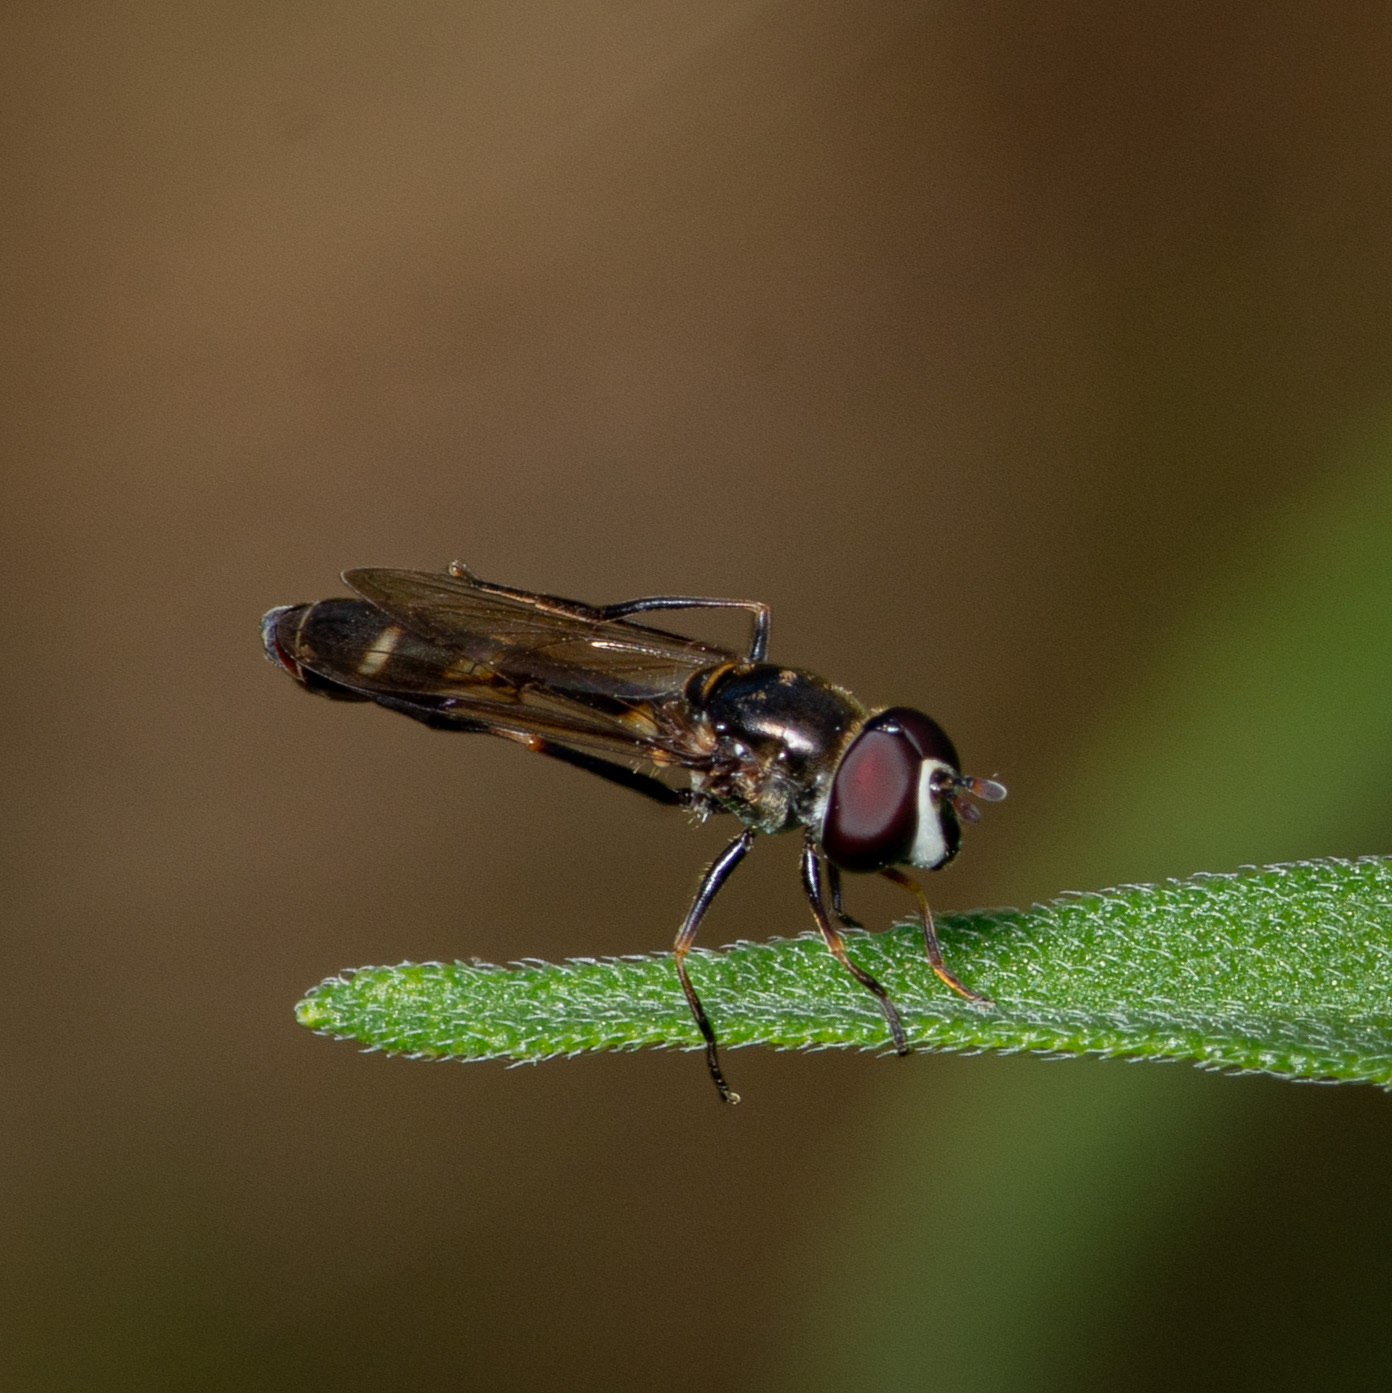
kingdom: Animalia
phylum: Arthropoda
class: Insecta
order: Diptera
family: Syrphidae
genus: Dioprosopa
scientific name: Dioprosopa clavatus
